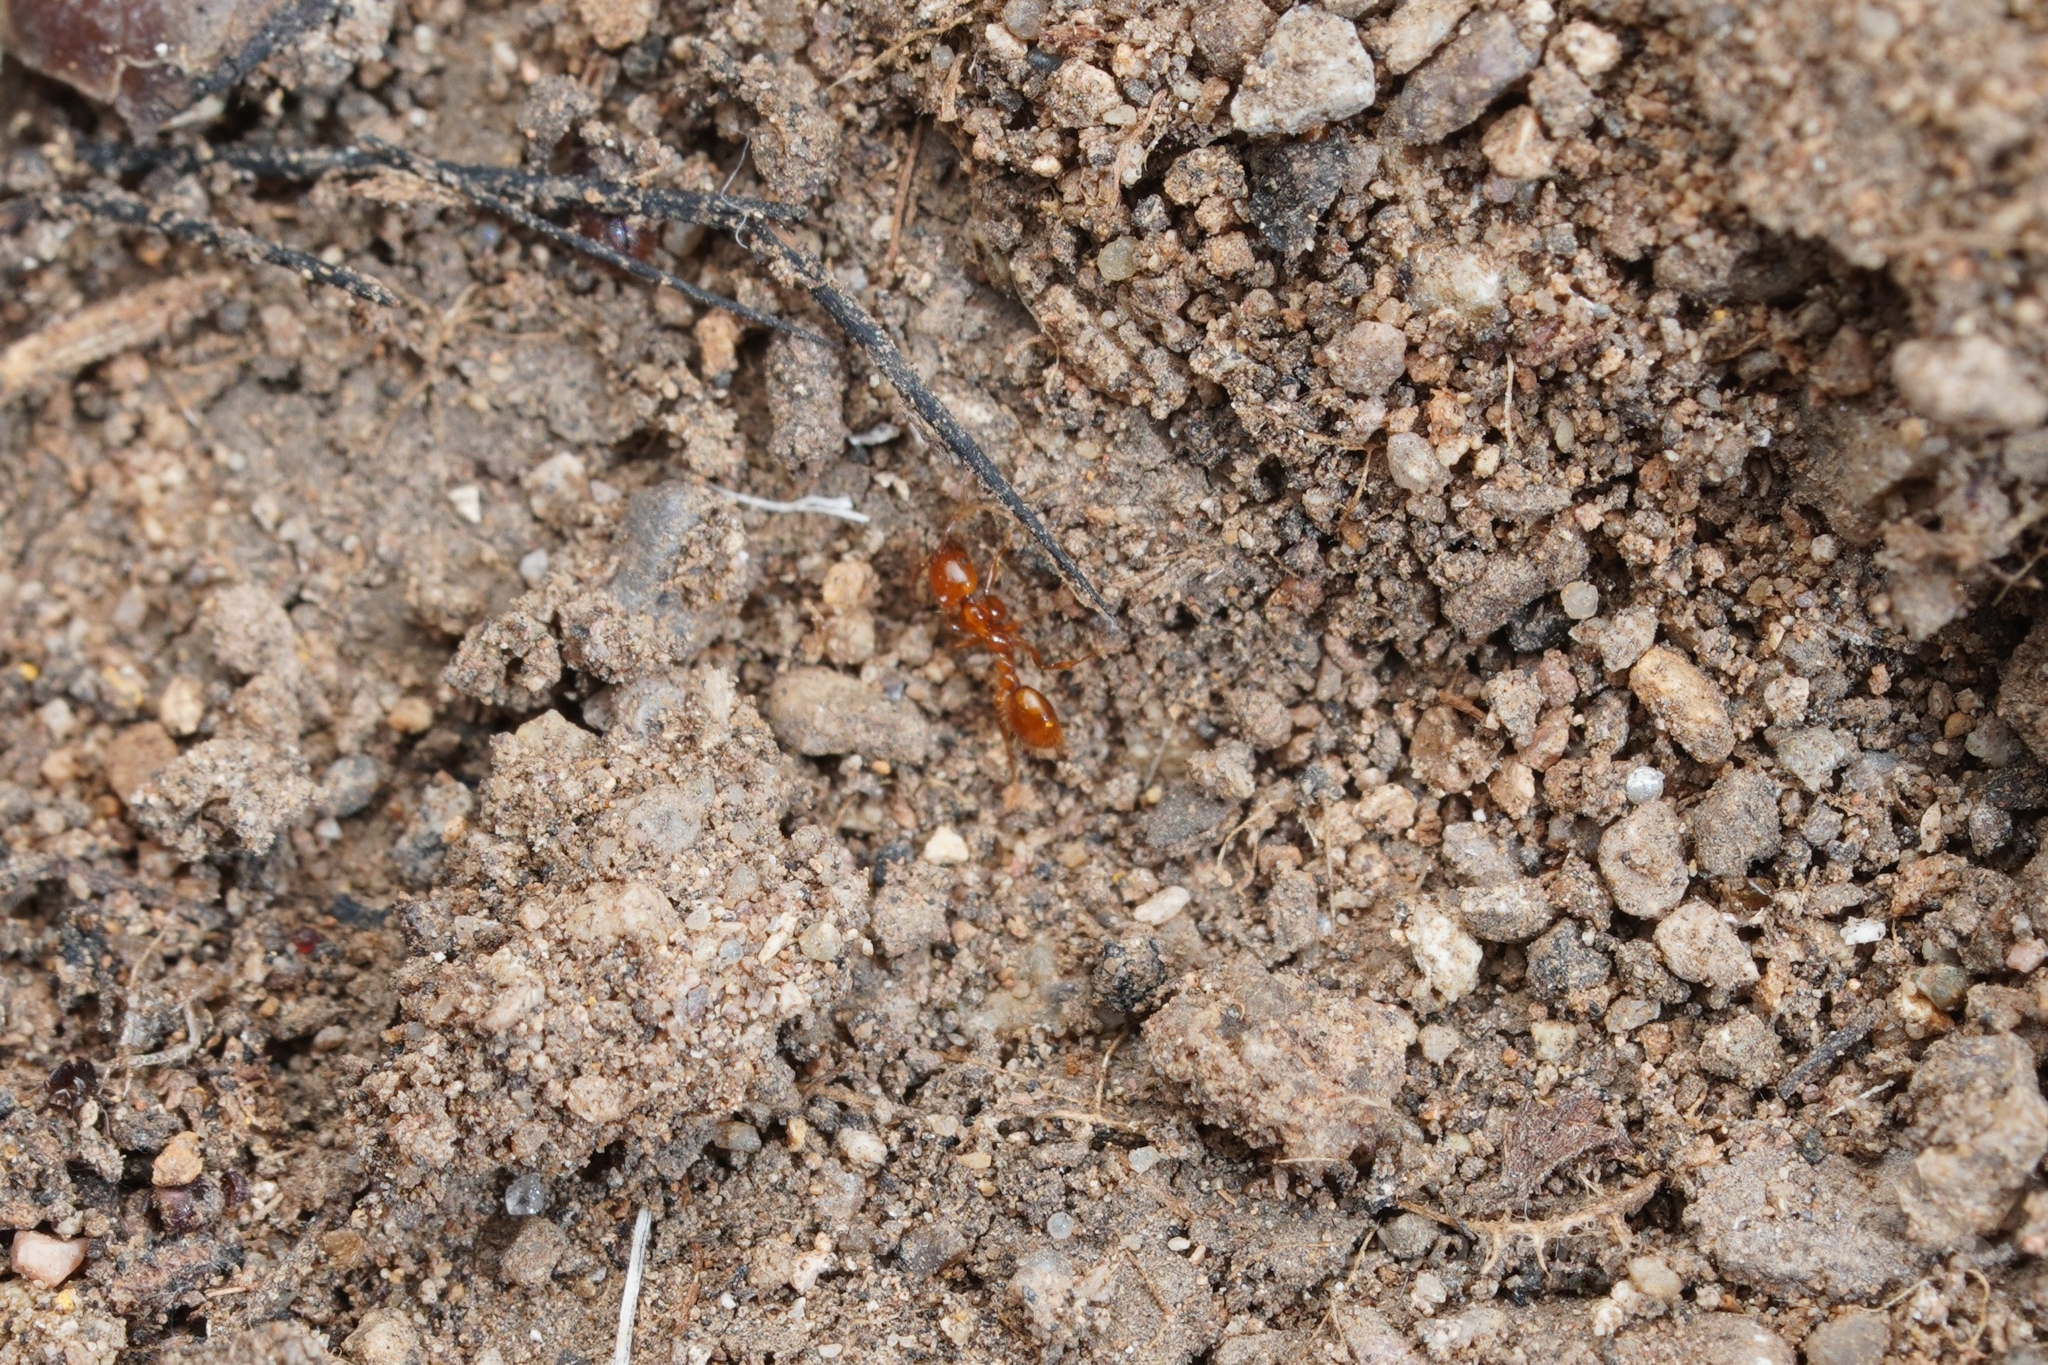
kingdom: Animalia
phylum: Arthropoda
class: Insecta
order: Hymenoptera
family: Formicidae
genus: Solenopsis
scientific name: Solenopsis
